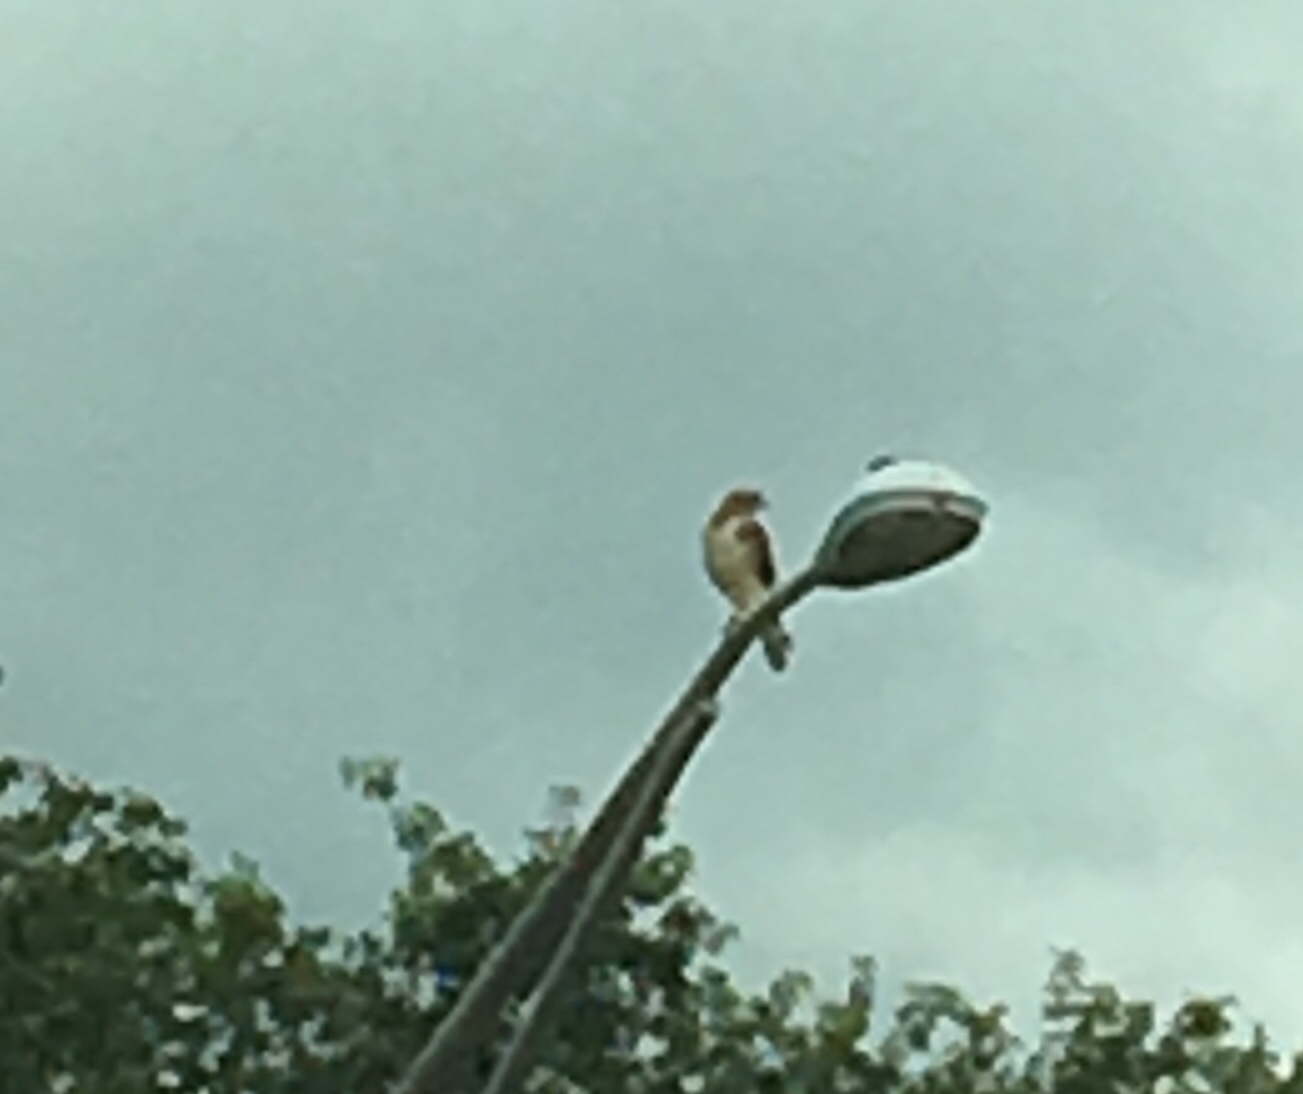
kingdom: Animalia
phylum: Chordata
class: Aves
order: Accipitriformes
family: Accipitridae
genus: Buteo
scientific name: Buteo jamaicensis
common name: Red-tailed hawk
